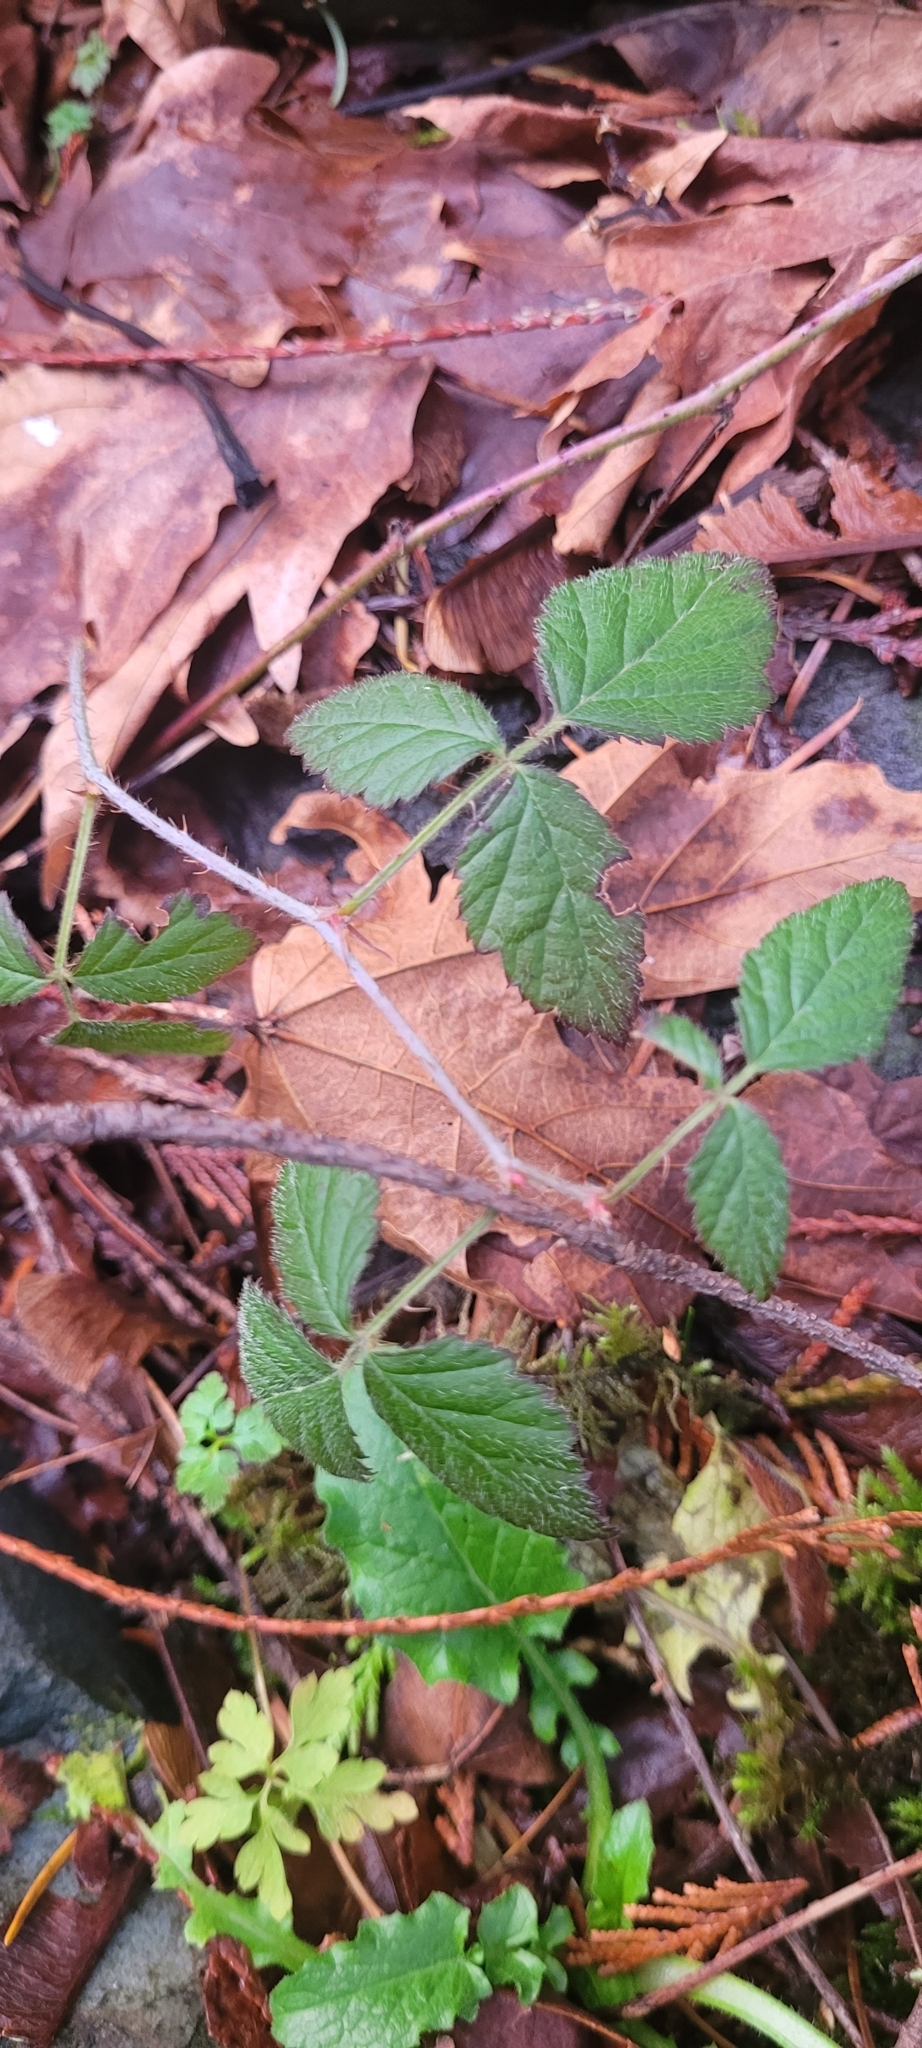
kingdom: Plantae
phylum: Tracheophyta
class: Magnoliopsida
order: Rosales
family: Rosaceae
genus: Rubus
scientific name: Rubus ursinus
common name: Pacific blackberry
